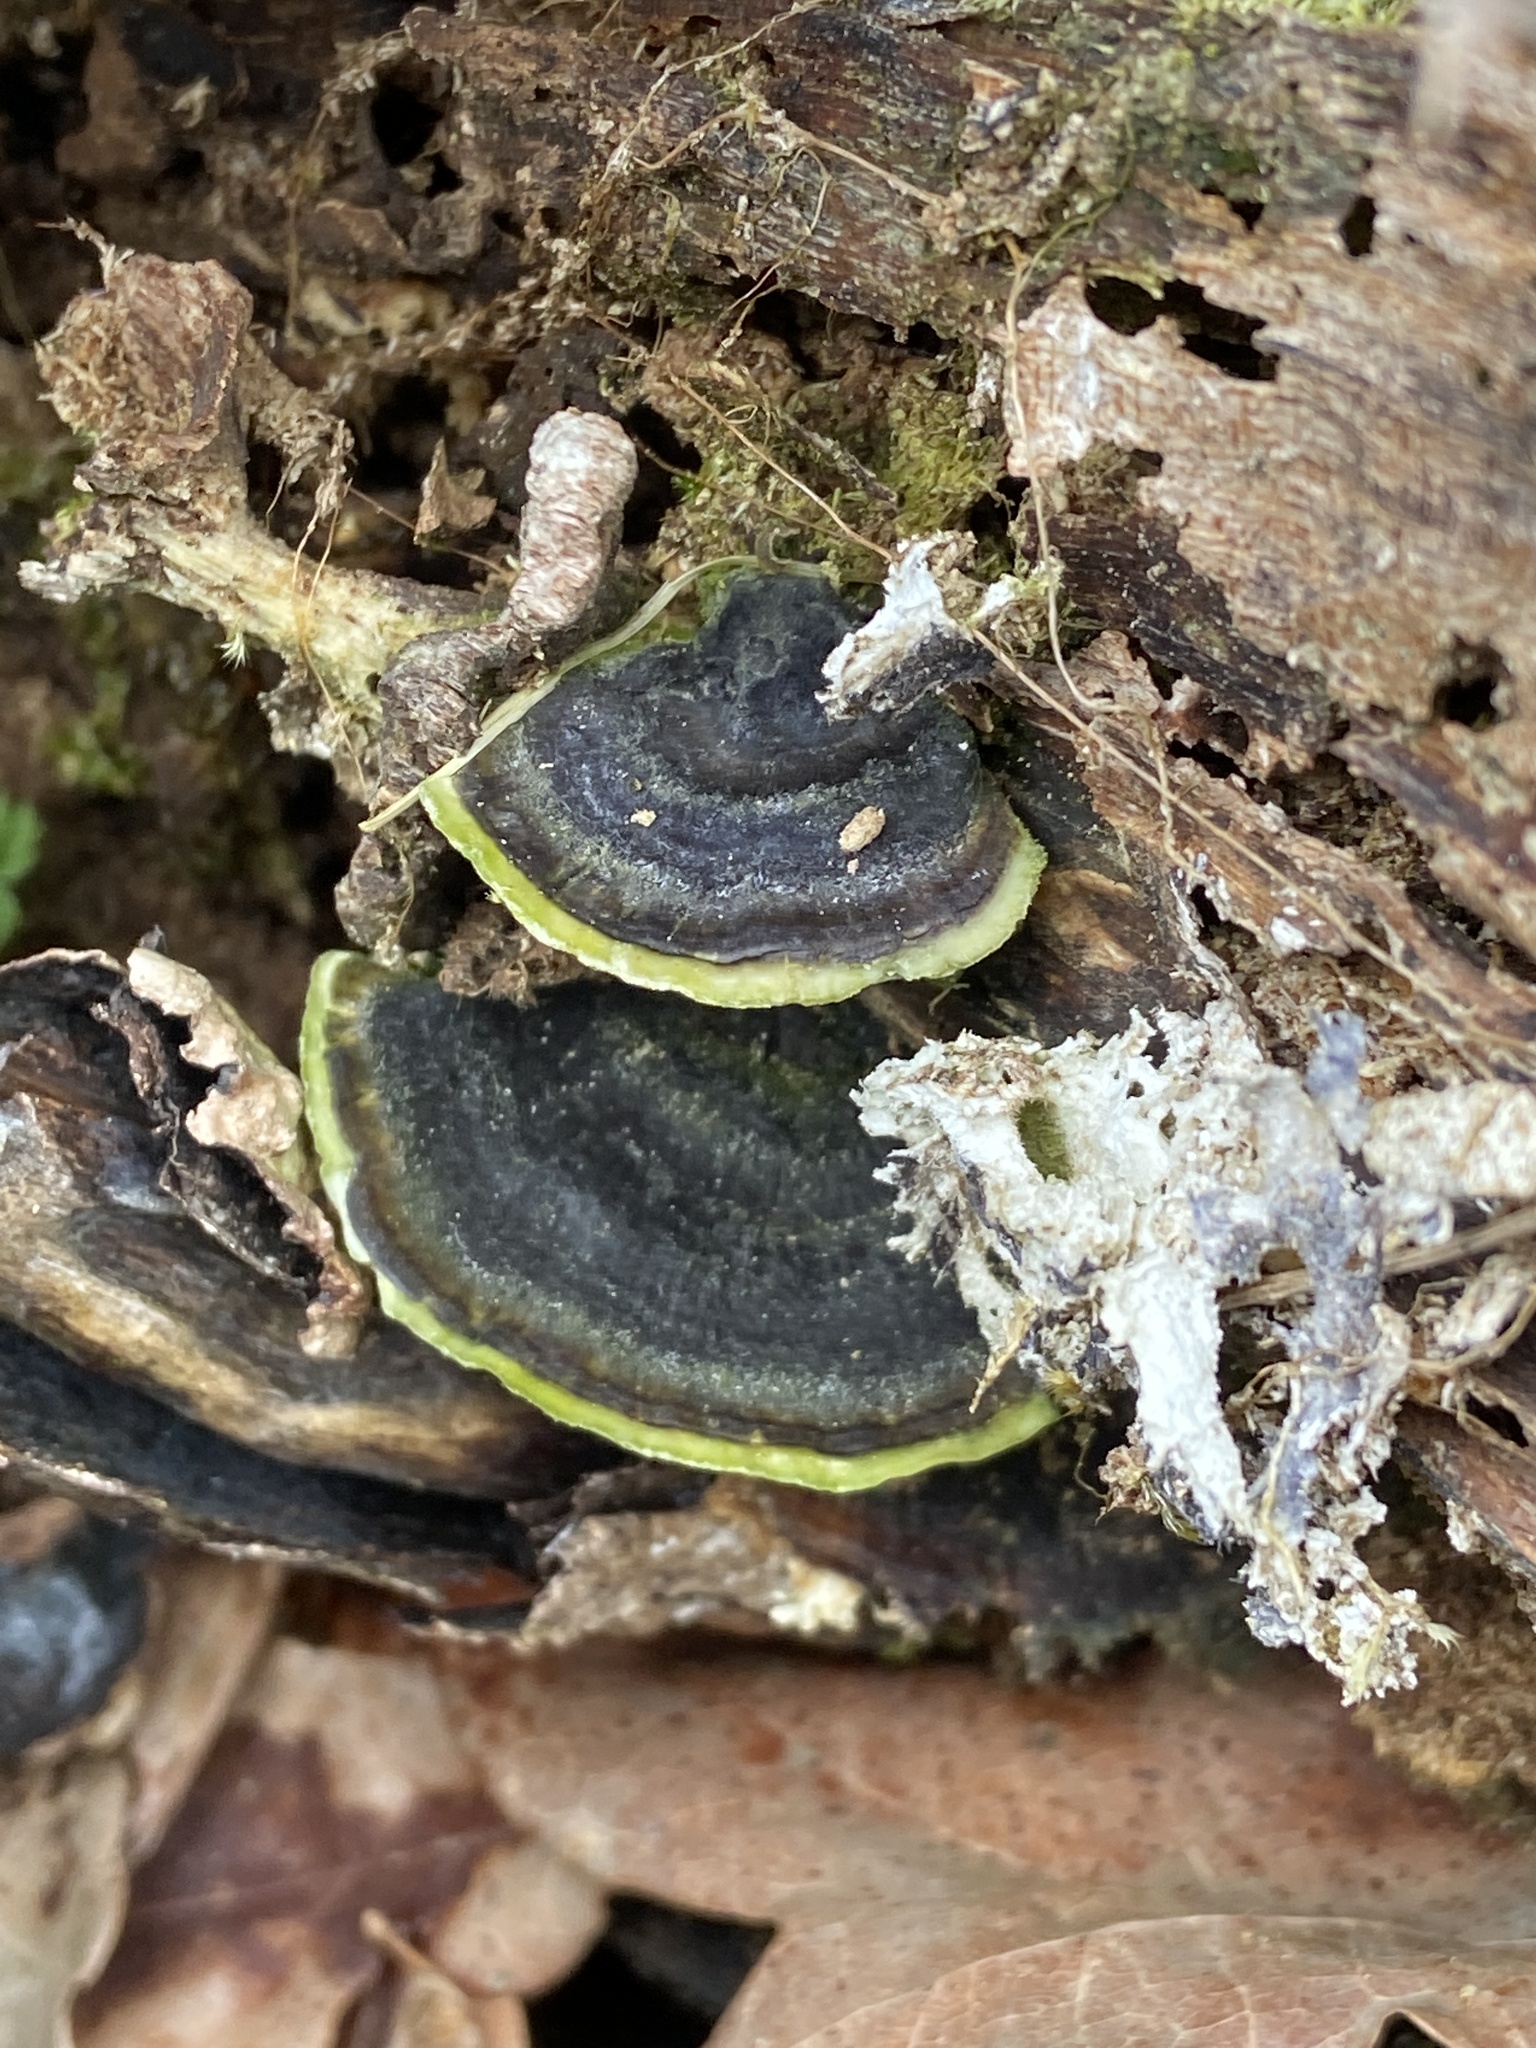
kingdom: Fungi
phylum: Basidiomycota
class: Agaricomycetes
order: Polyporales
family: Polyporaceae
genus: Trametes
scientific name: Trametes versicolor
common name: Turkeytail
